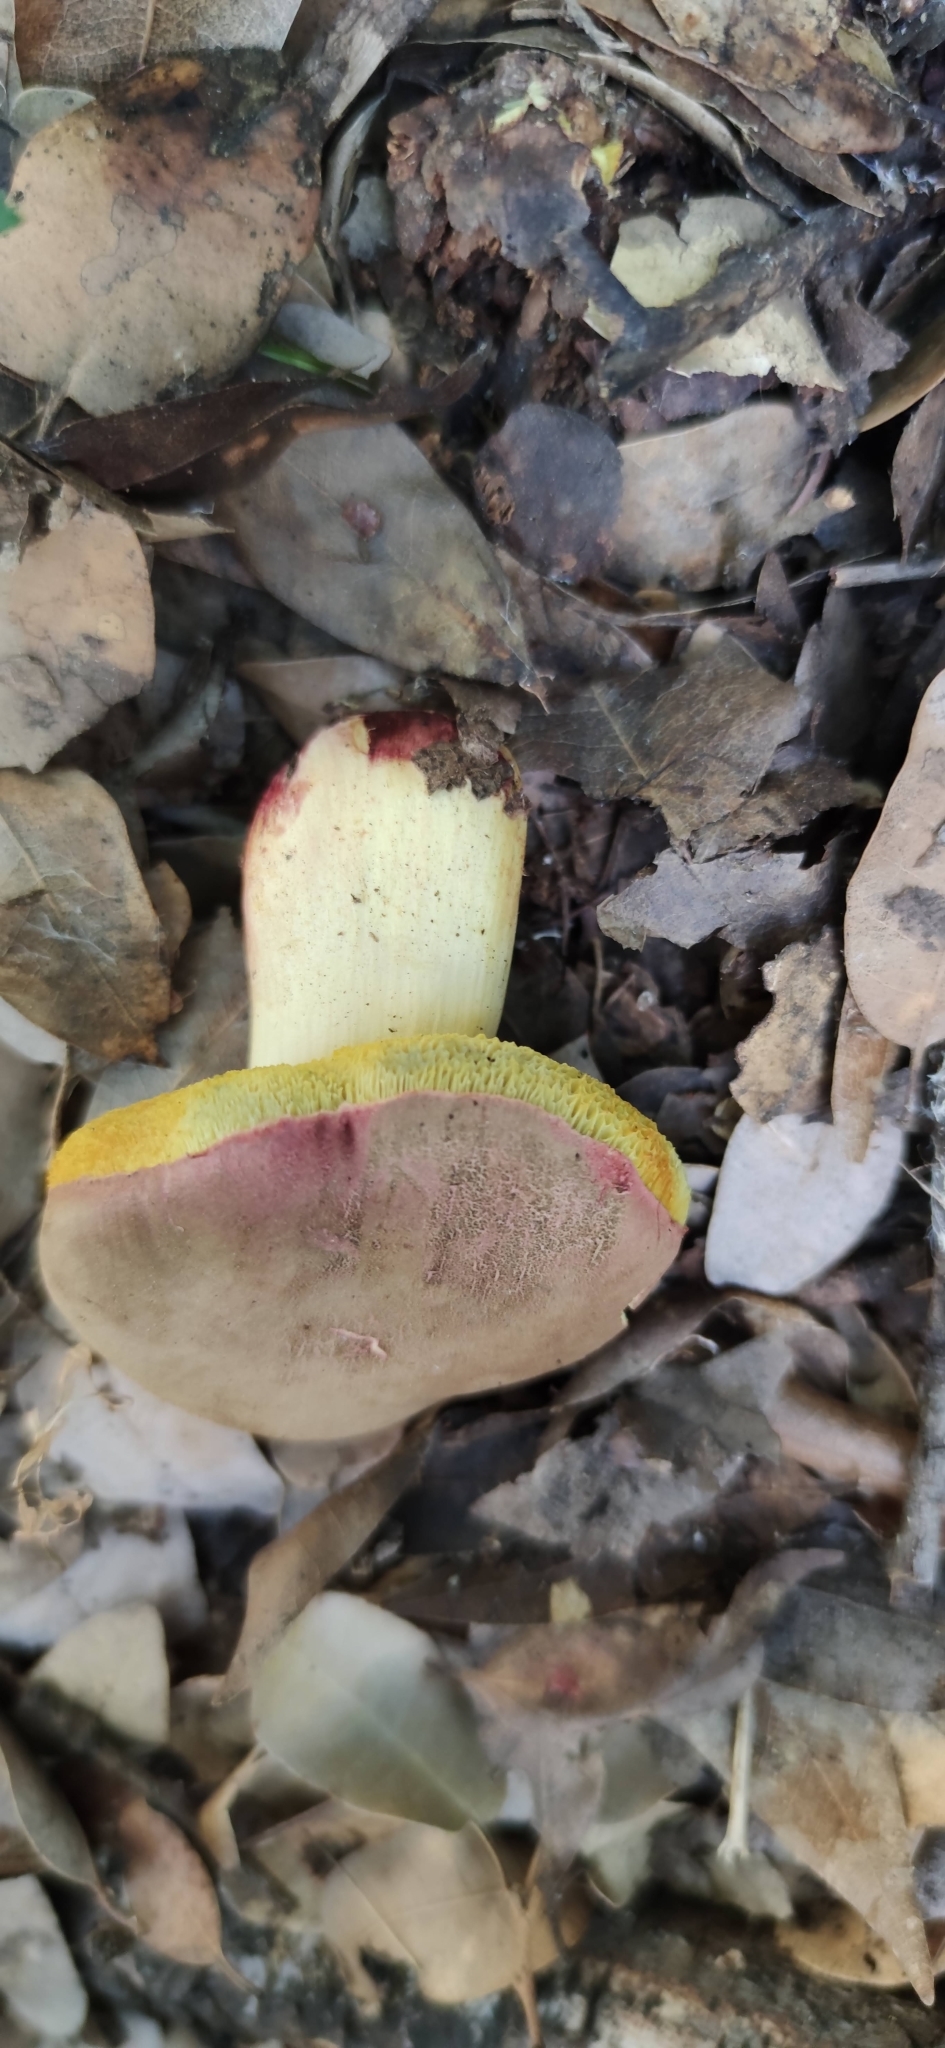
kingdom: Fungi
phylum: Basidiomycota
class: Agaricomycetes
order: Boletales
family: Boletaceae
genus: Xerocomellus
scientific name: Xerocomellus dryophilus
